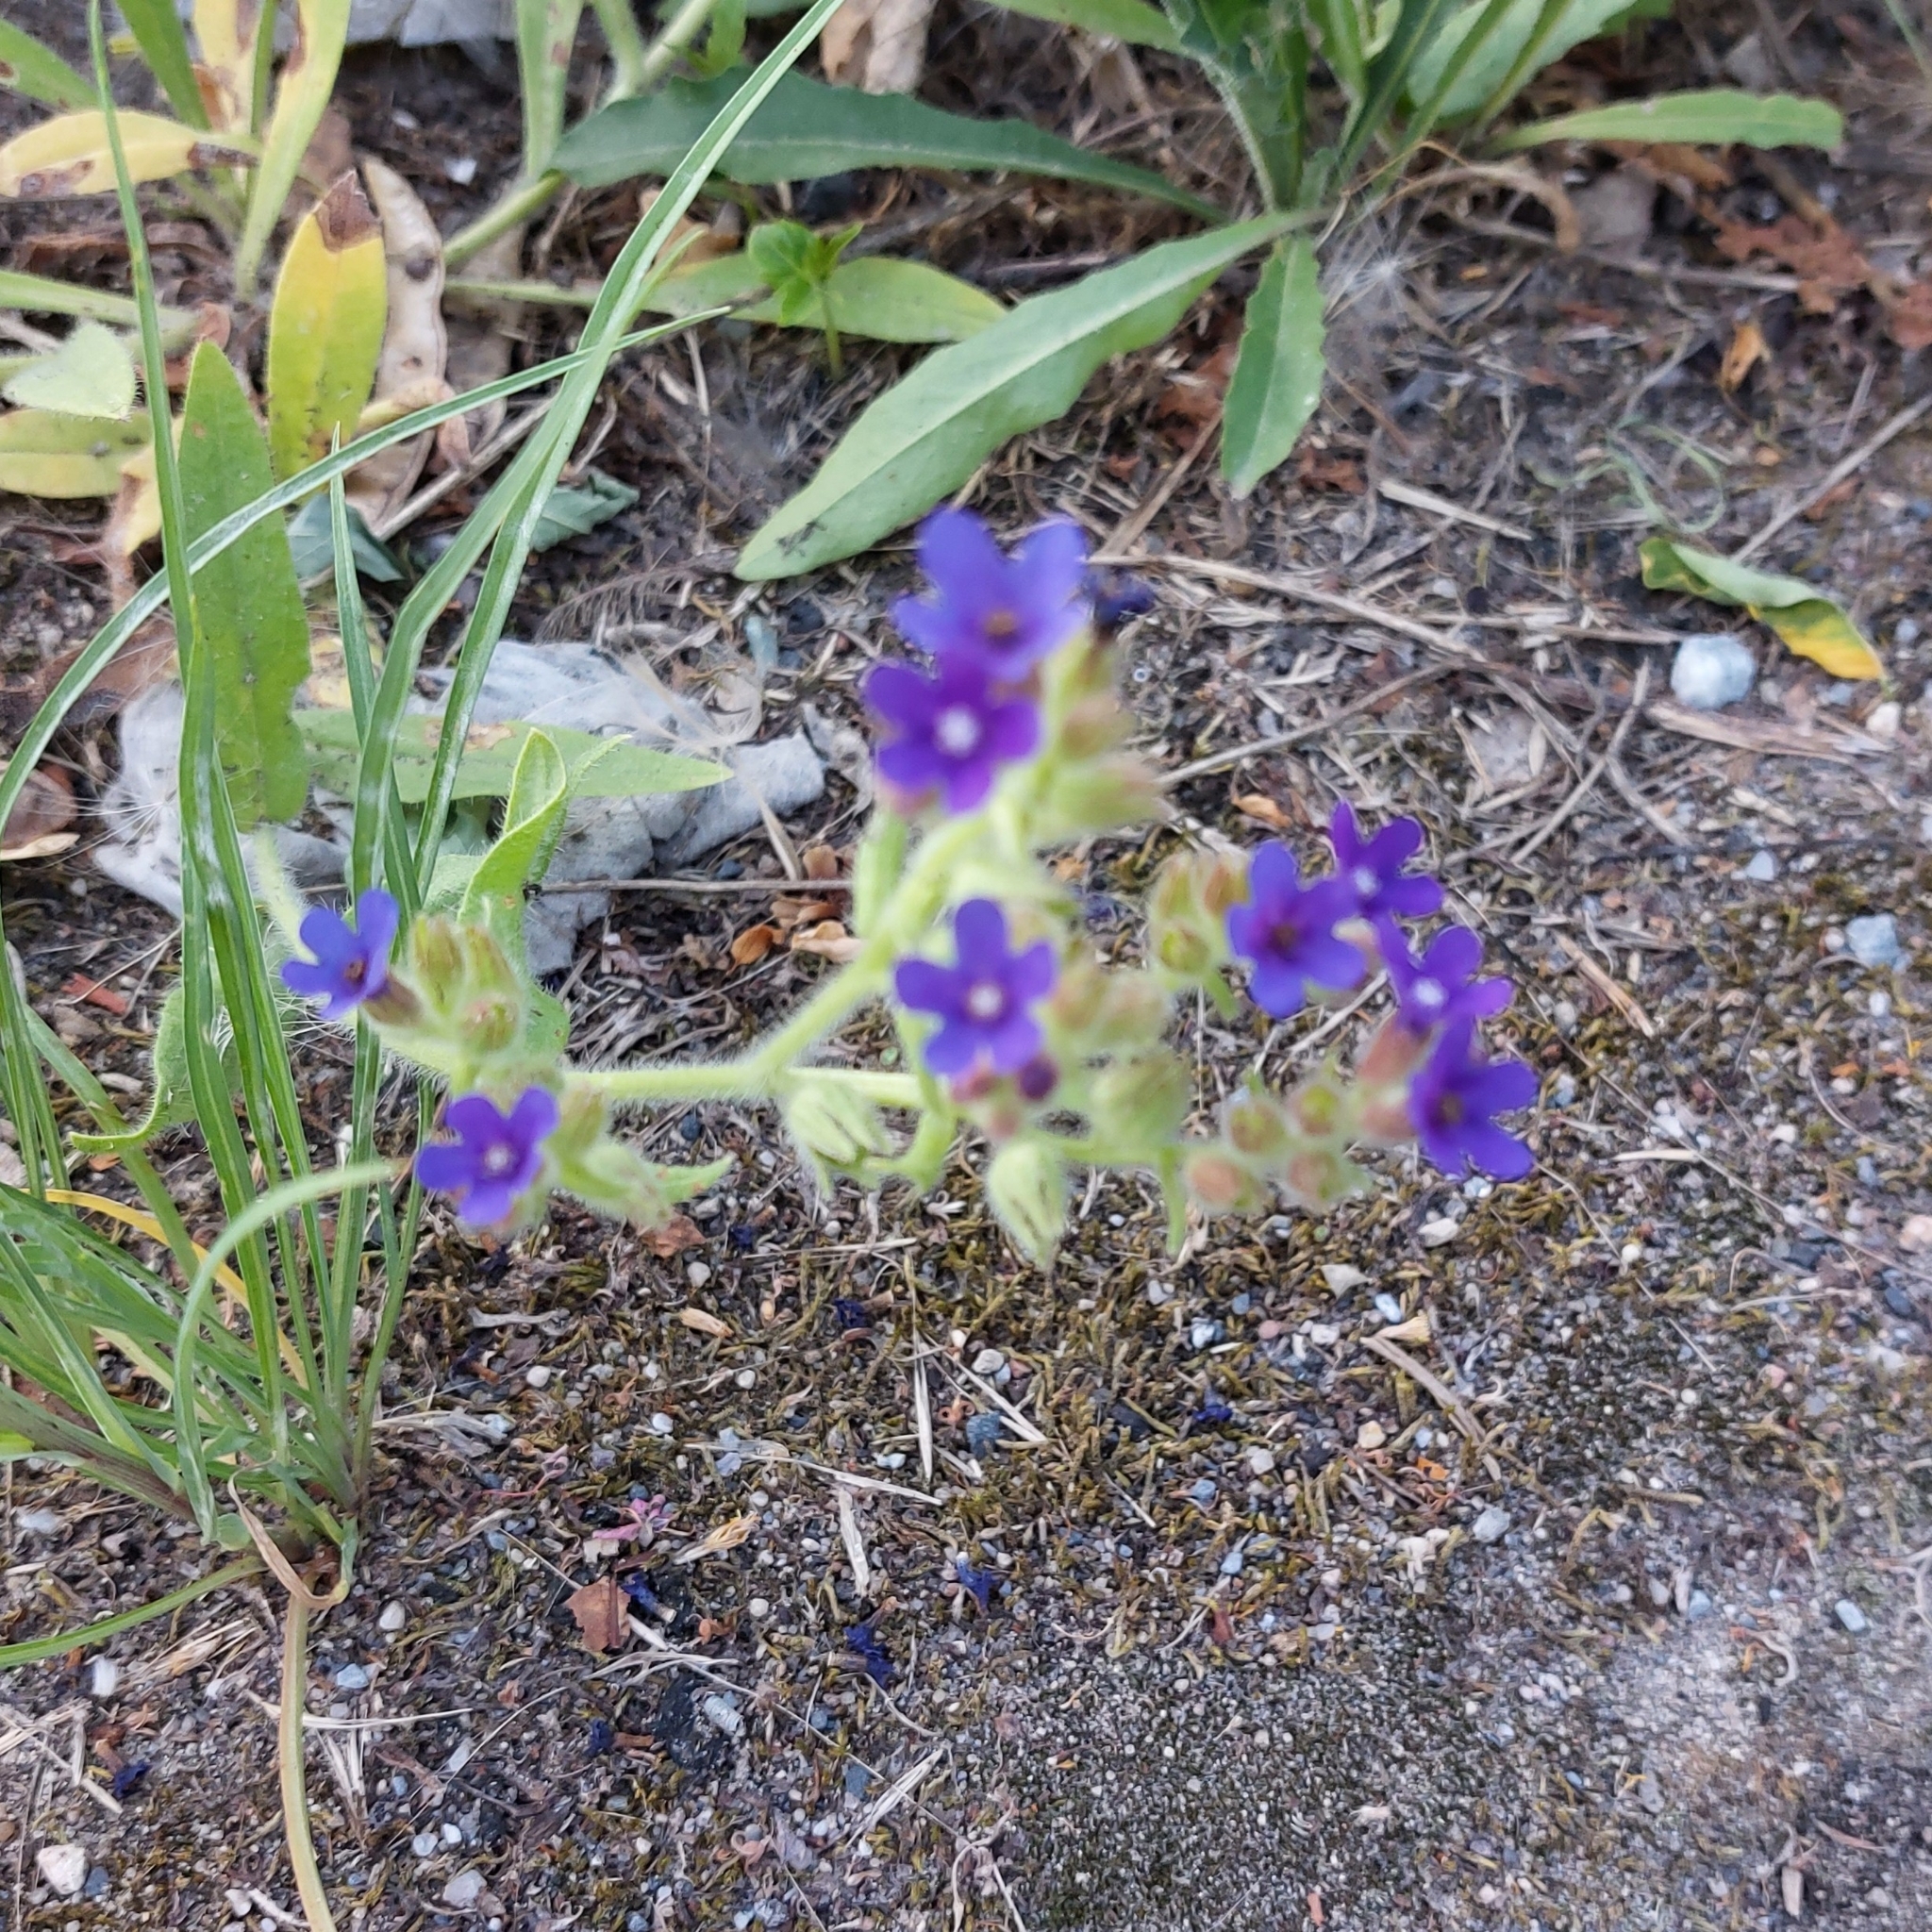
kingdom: Plantae
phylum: Tracheophyta
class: Magnoliopsida
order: Boraginales
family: Boraginaceae
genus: Anchusa
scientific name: Anchusa officinalis
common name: Alkanet
